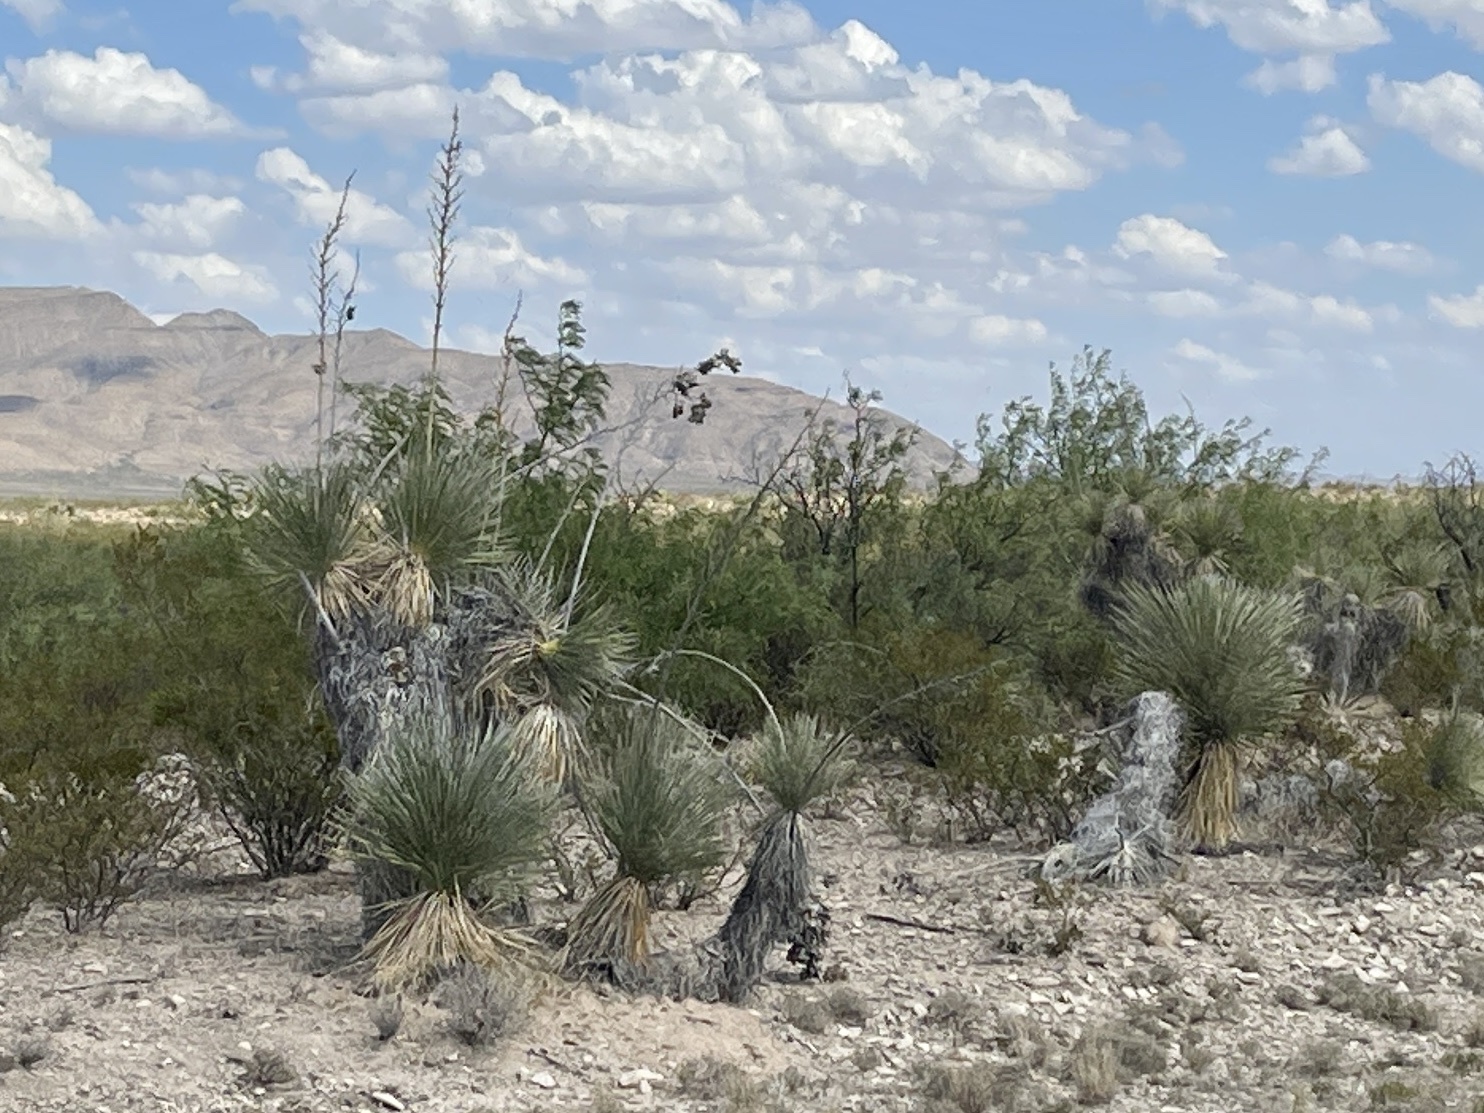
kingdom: Plantae
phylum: Tracheophyta
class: Liliopsida
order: Asparagales
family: Asparagaceae
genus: Yucca
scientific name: Yucca elata
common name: Palmella
